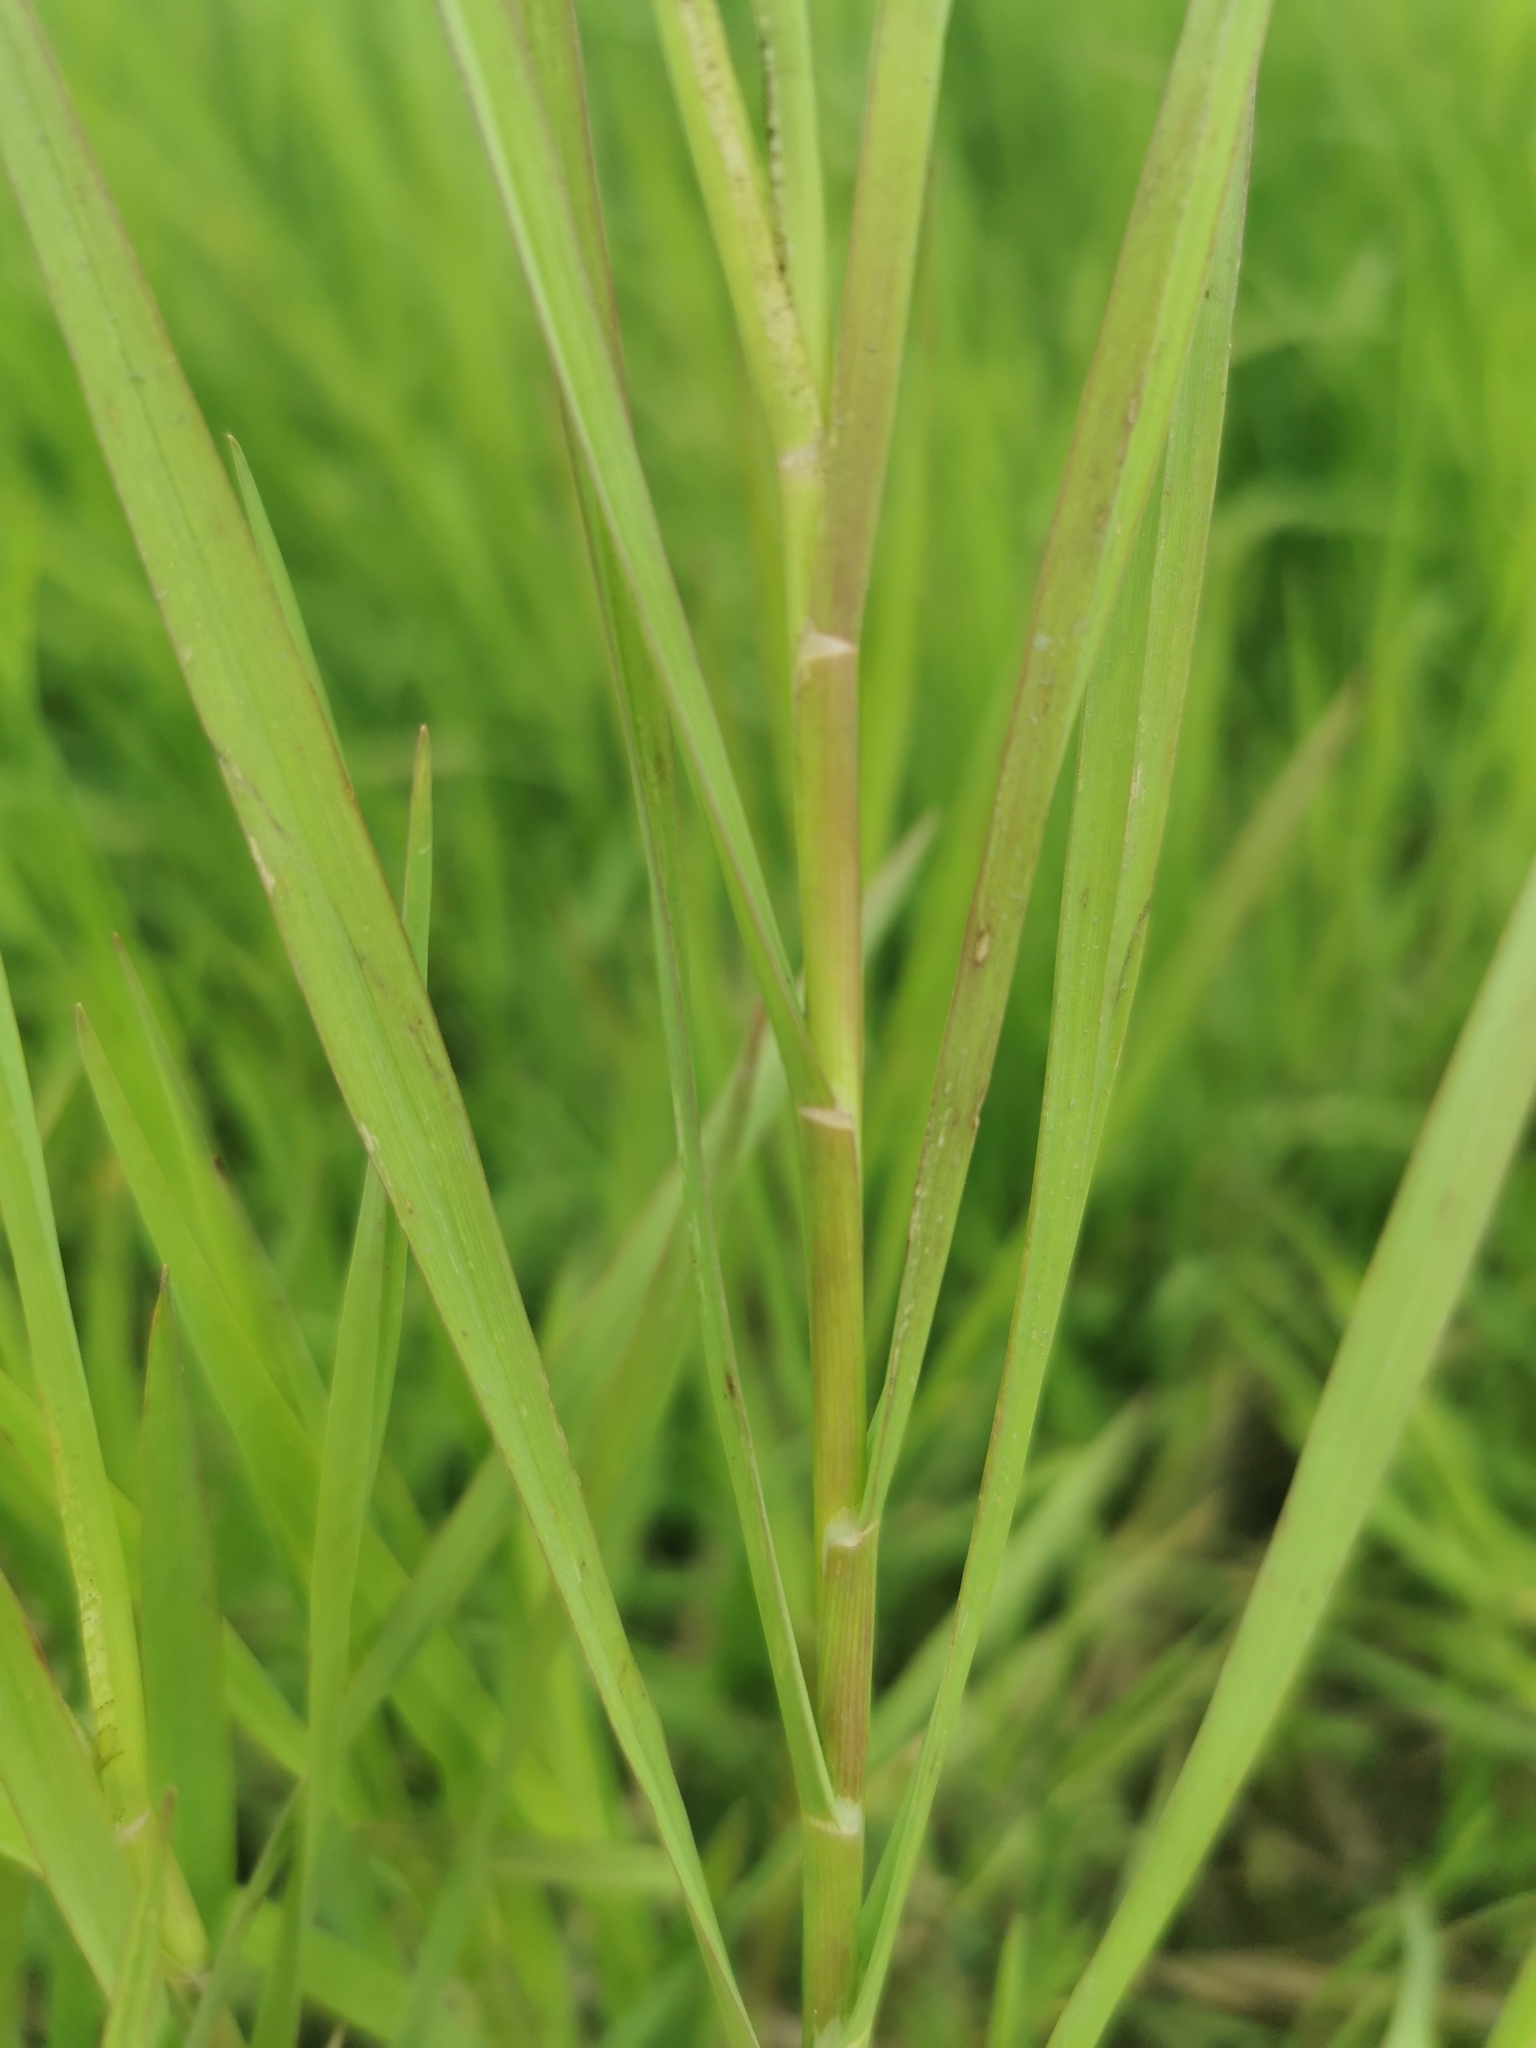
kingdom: Plantae
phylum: Tracheophyta
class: Liliopsida
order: Poales
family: Poaceae
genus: Dupontia
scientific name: Dupontia fulva
